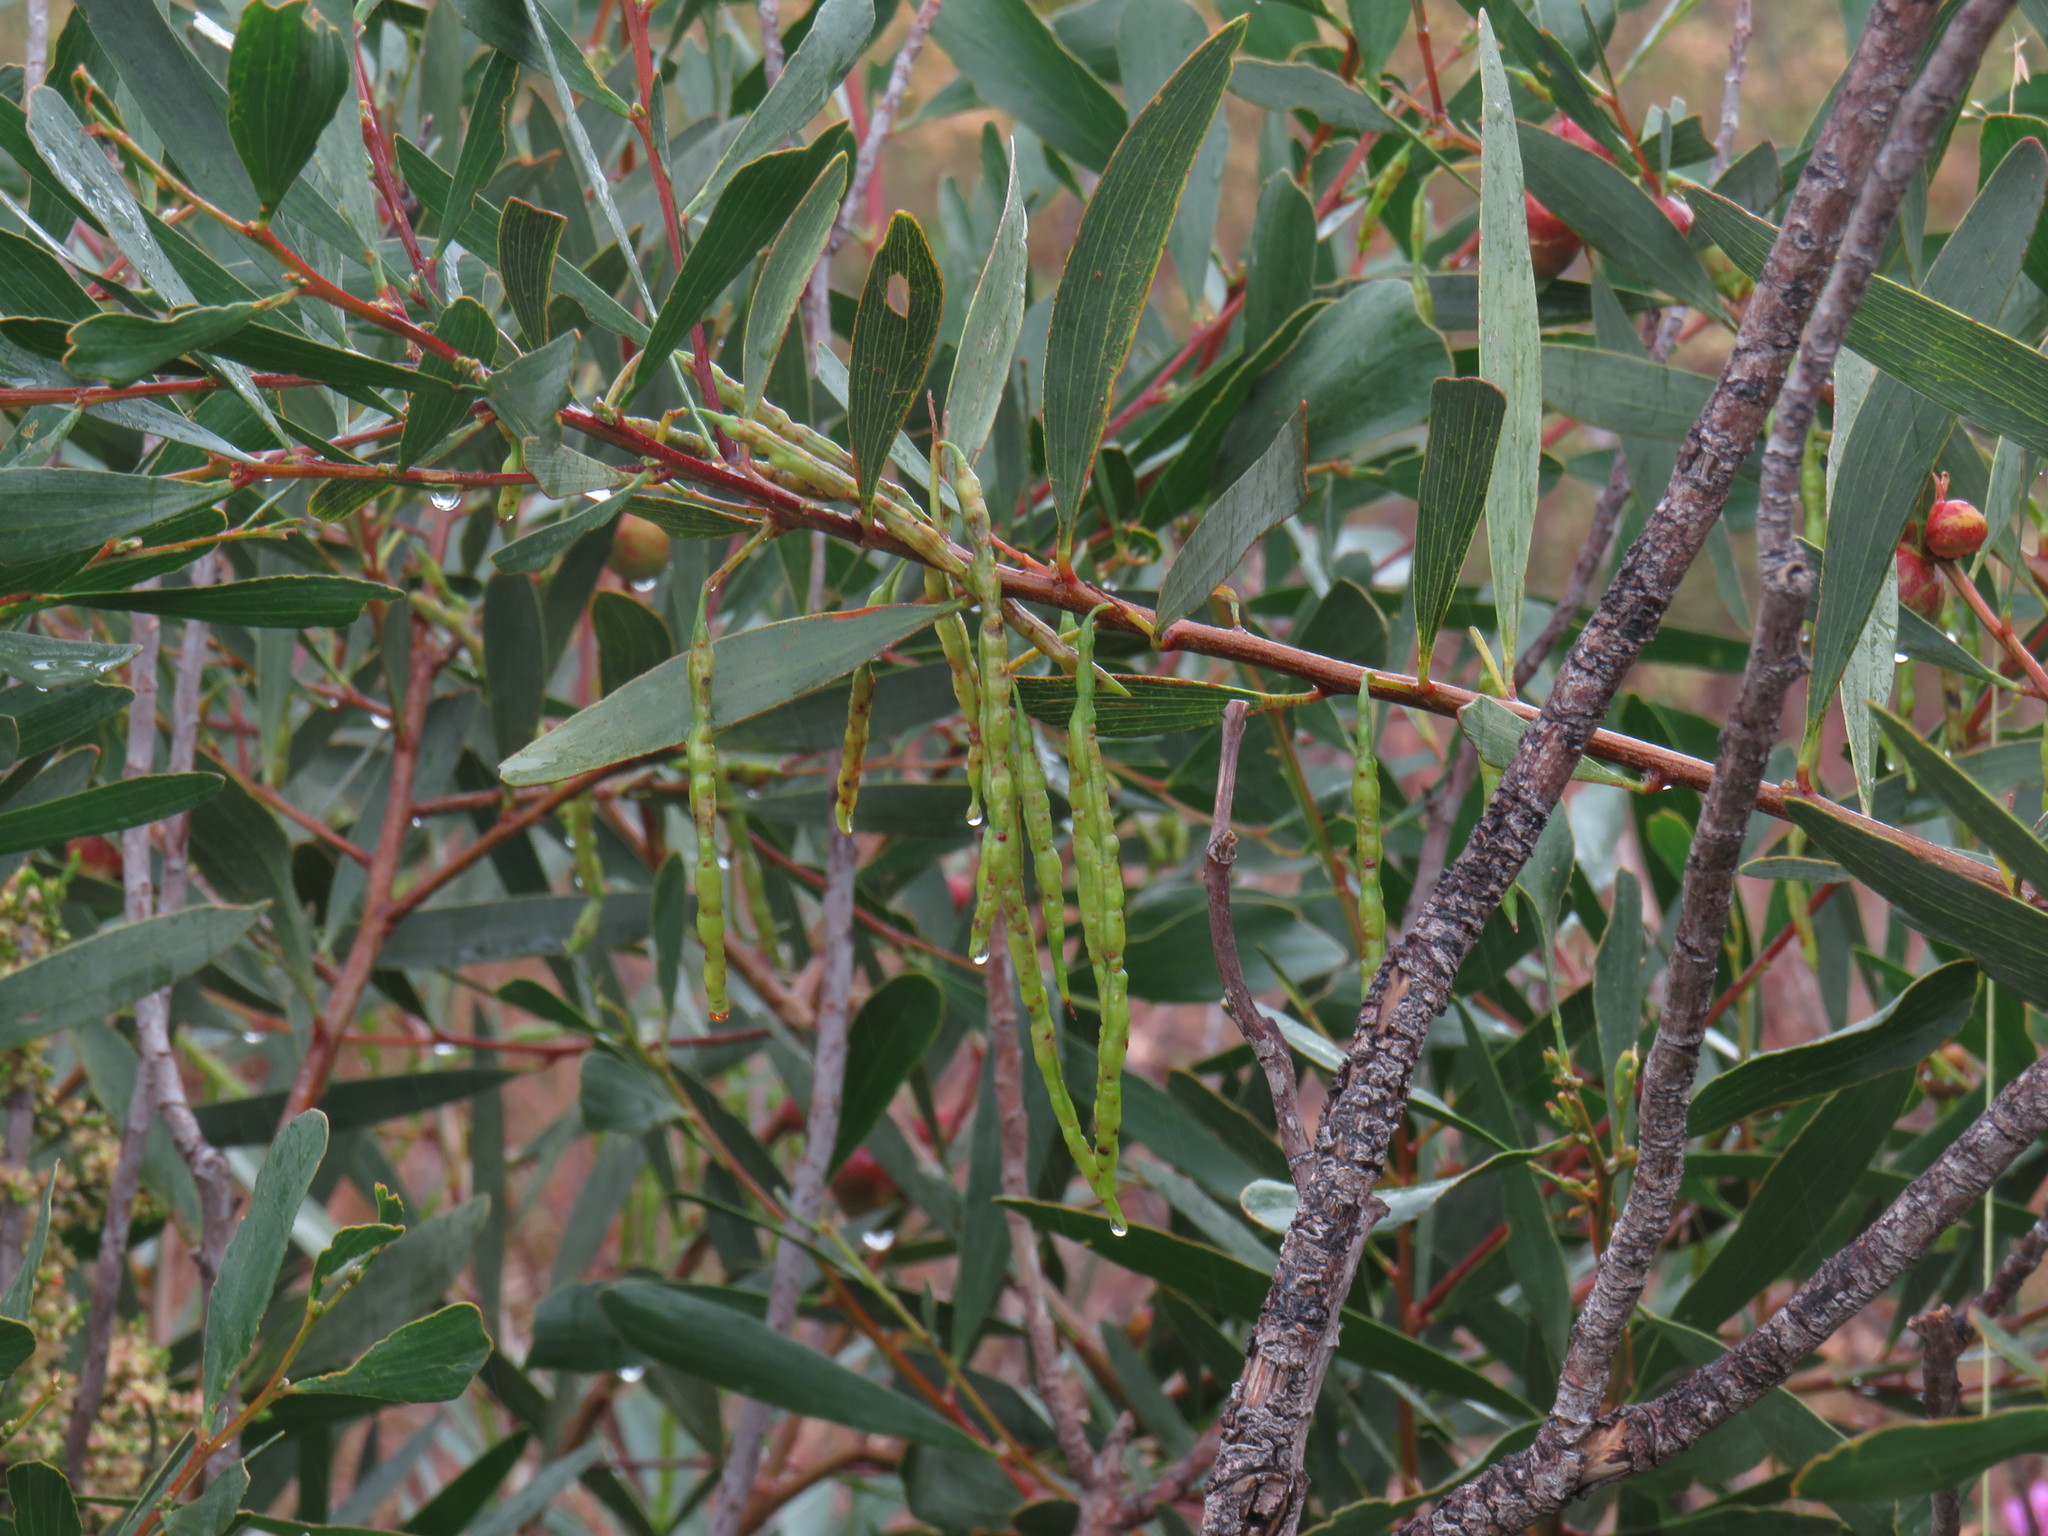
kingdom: Plantae
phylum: Tracheophyta
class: Magnoliopsida
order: Fabales
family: Fabaceae
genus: Acacia
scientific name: Acacia longifolia
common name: Sydney golden wattle
